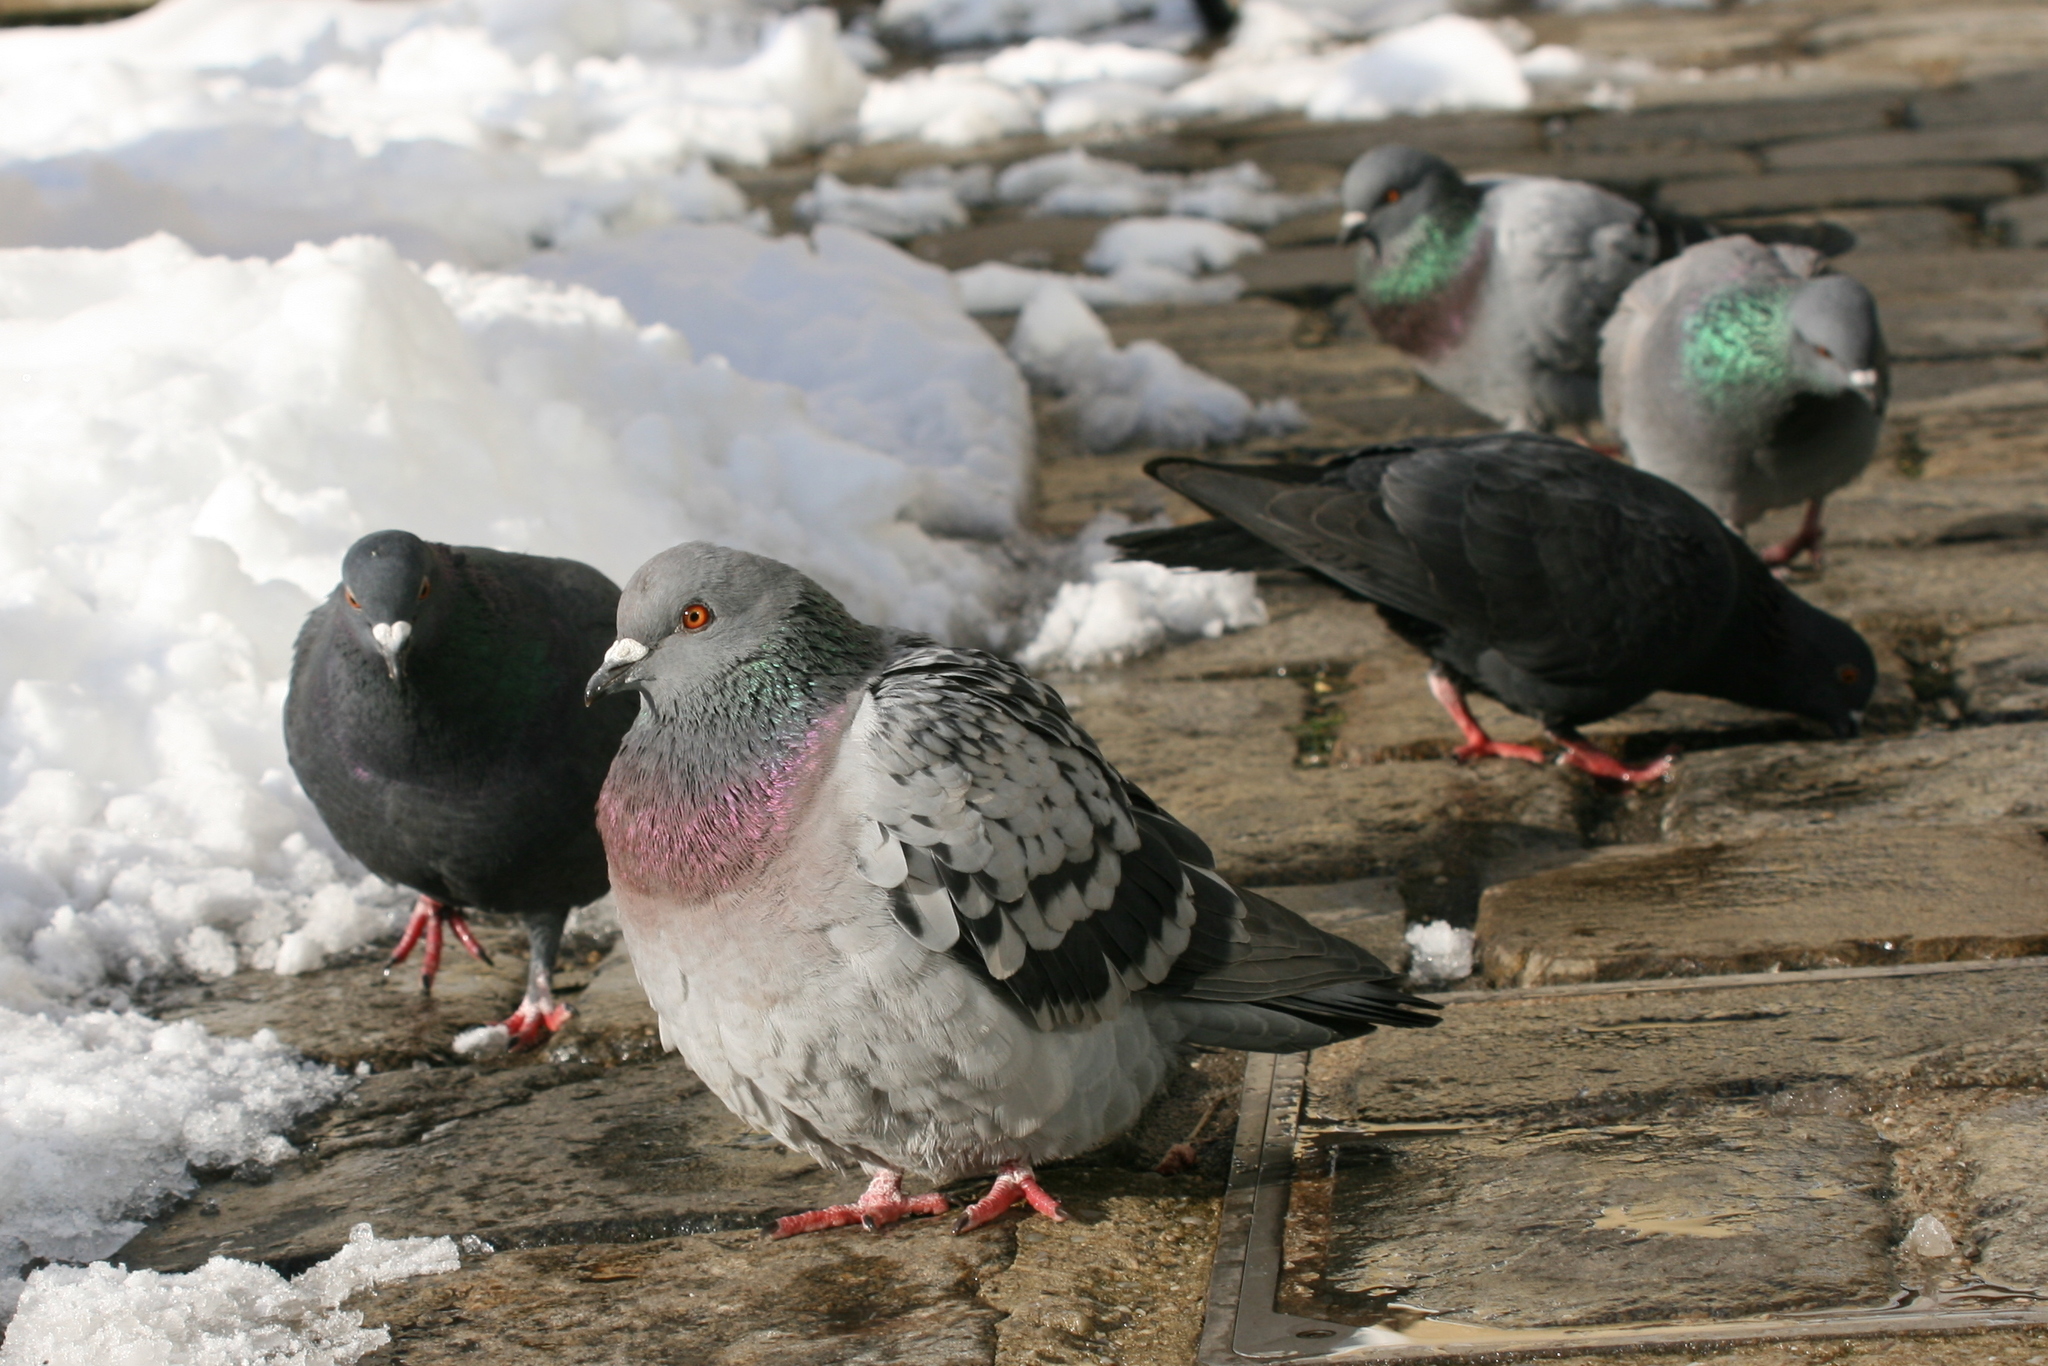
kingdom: Animalia
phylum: Chordata
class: Aves
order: Columbiformes
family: Columbidae
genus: Columba
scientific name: Columba livia
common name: Rock pigeon
